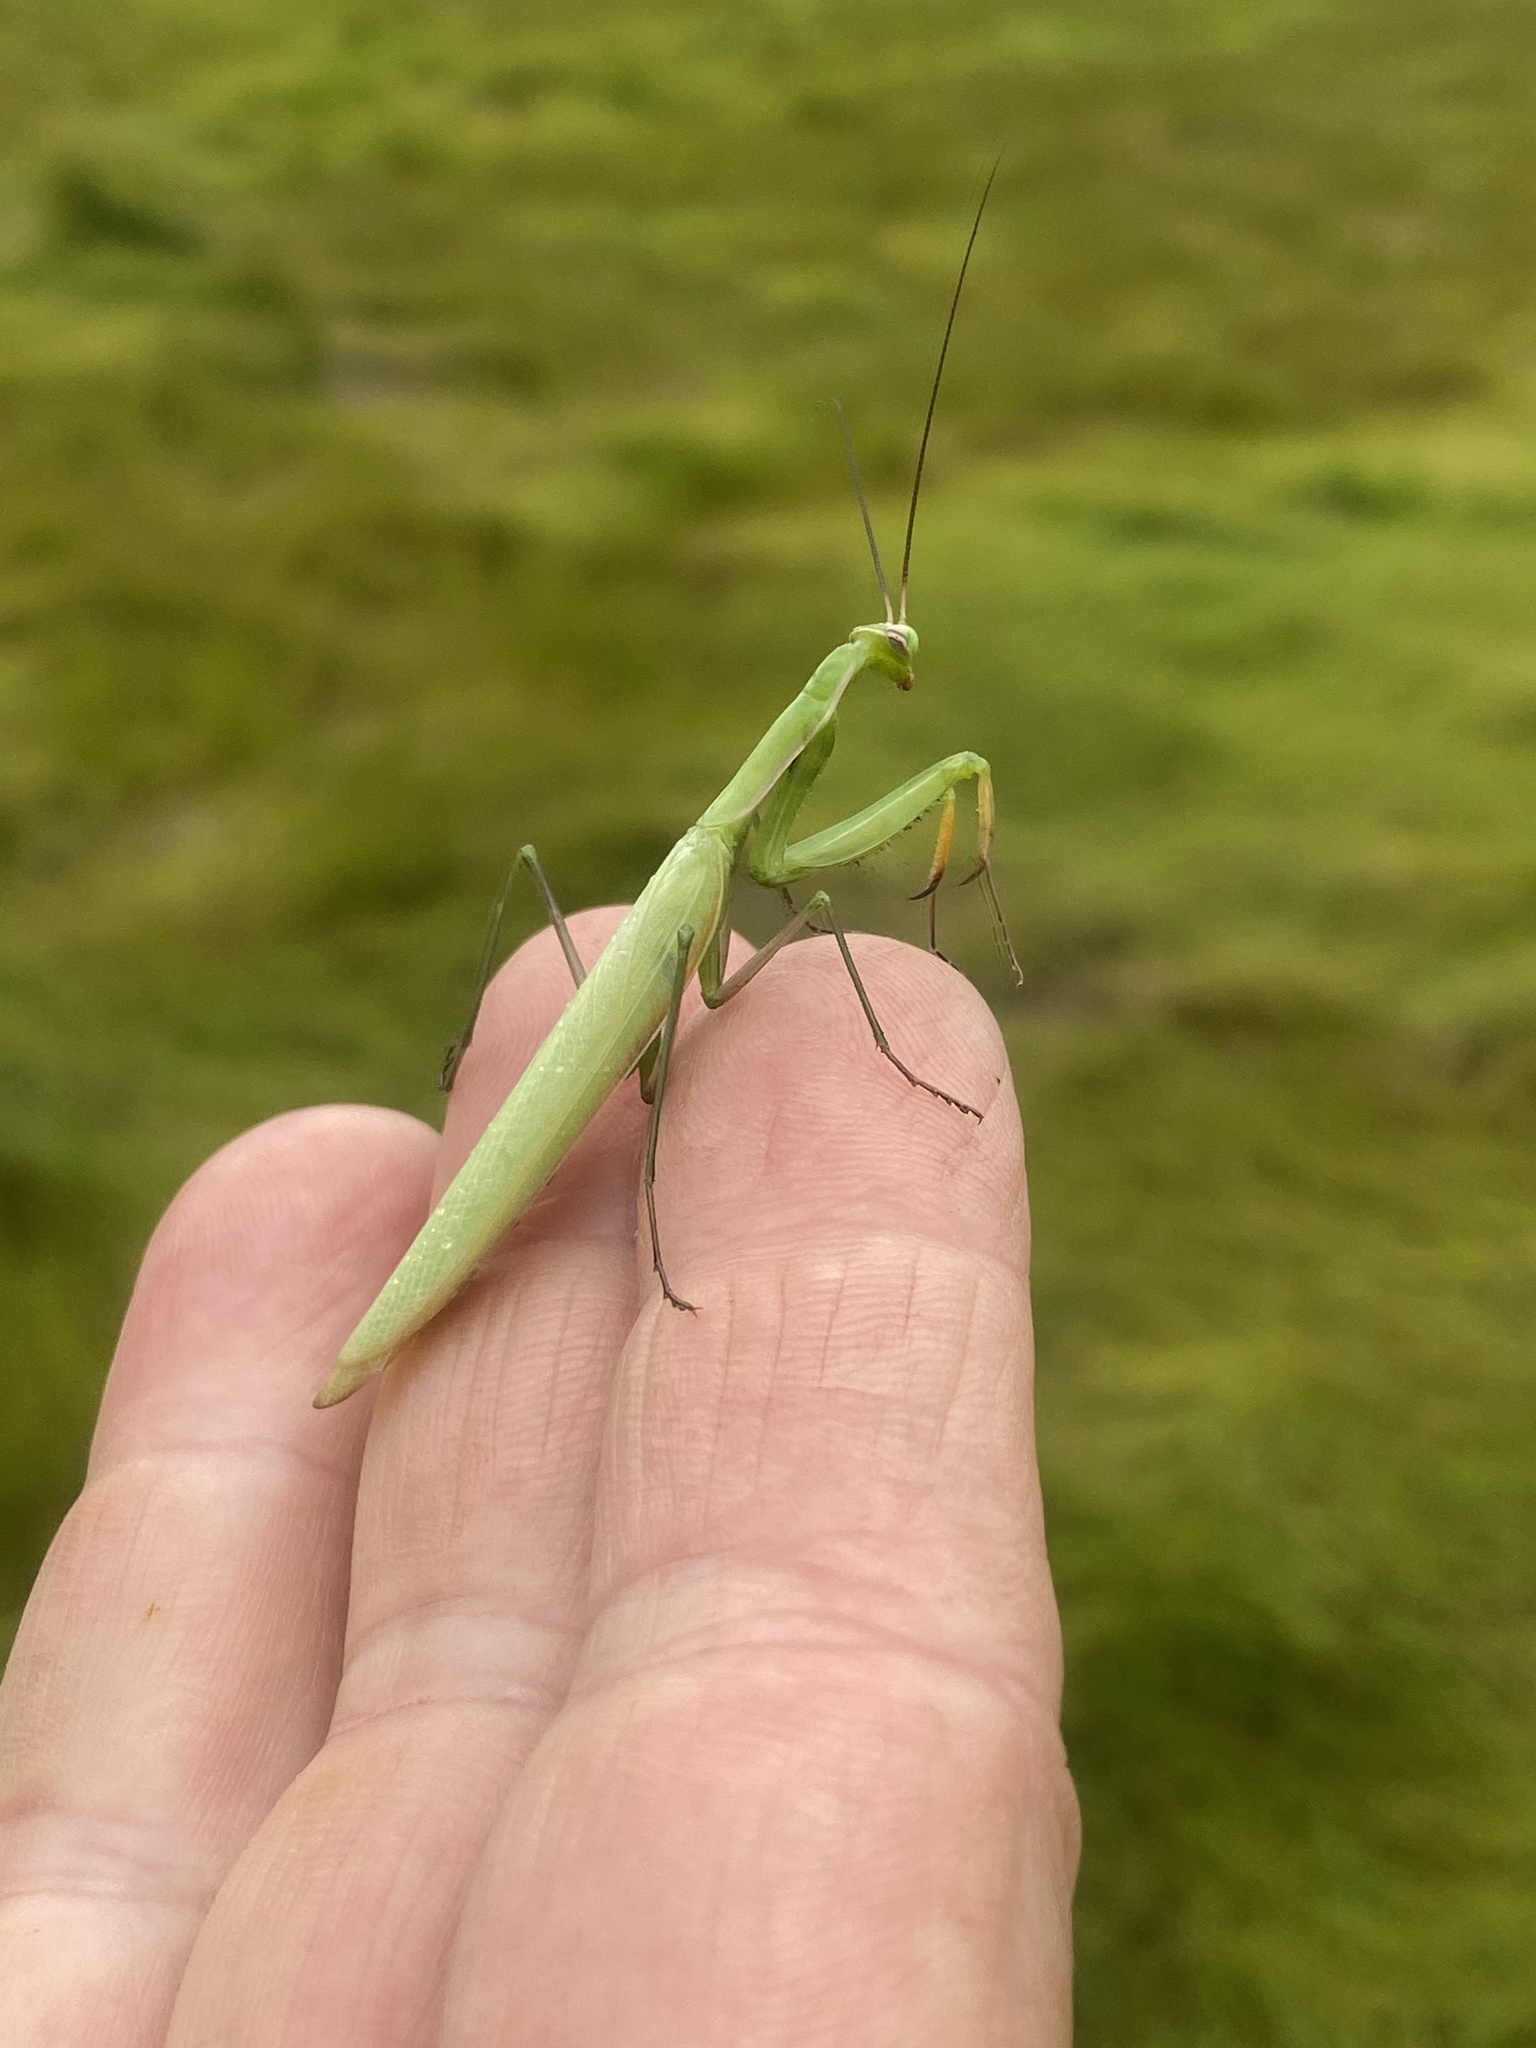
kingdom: Animalia
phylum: Arthropoda
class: Insecta
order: Mantodea
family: Mantidae
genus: Mantis
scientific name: Mantis religiosa
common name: Praying mantis
